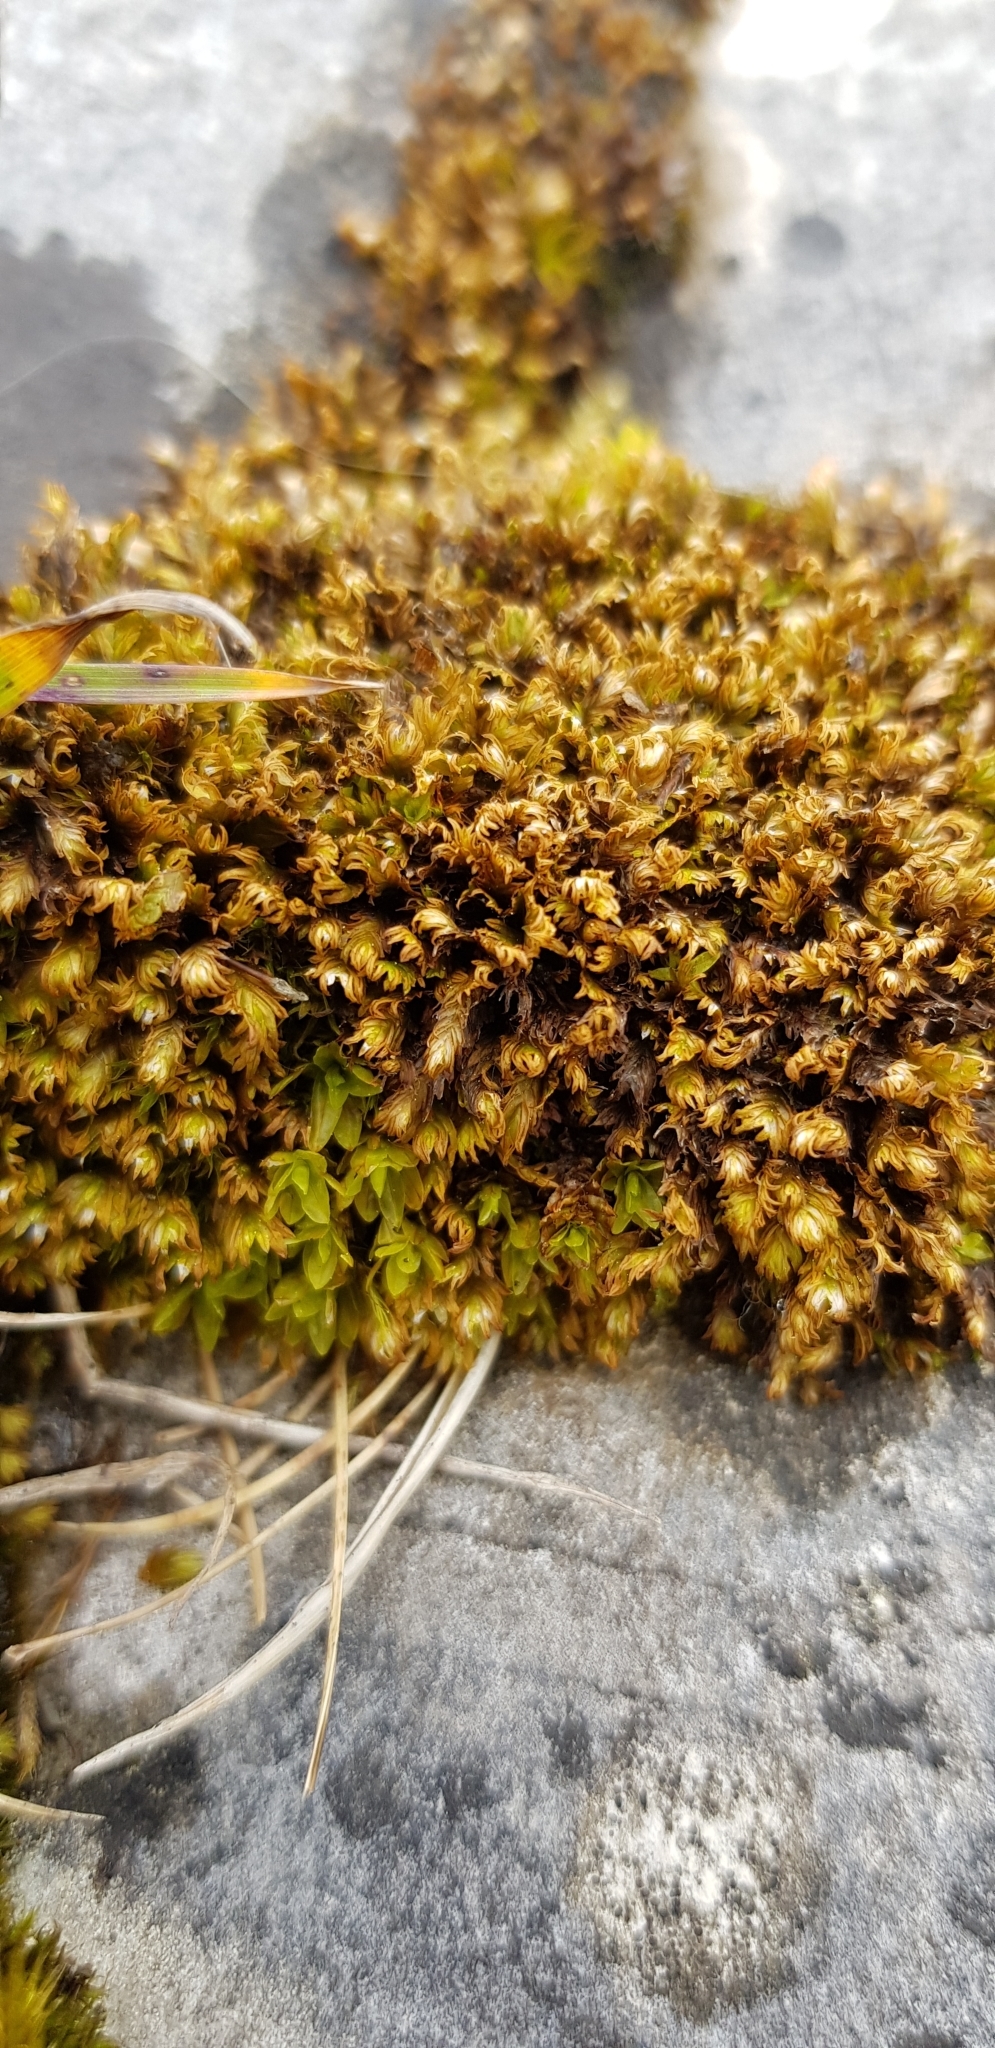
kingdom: Plantae
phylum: Bryophyta
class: Bryopsida
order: Dicranales
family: Fissidentaceae
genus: Fissidens
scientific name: Fissidens dubius
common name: Rock pocket moss
